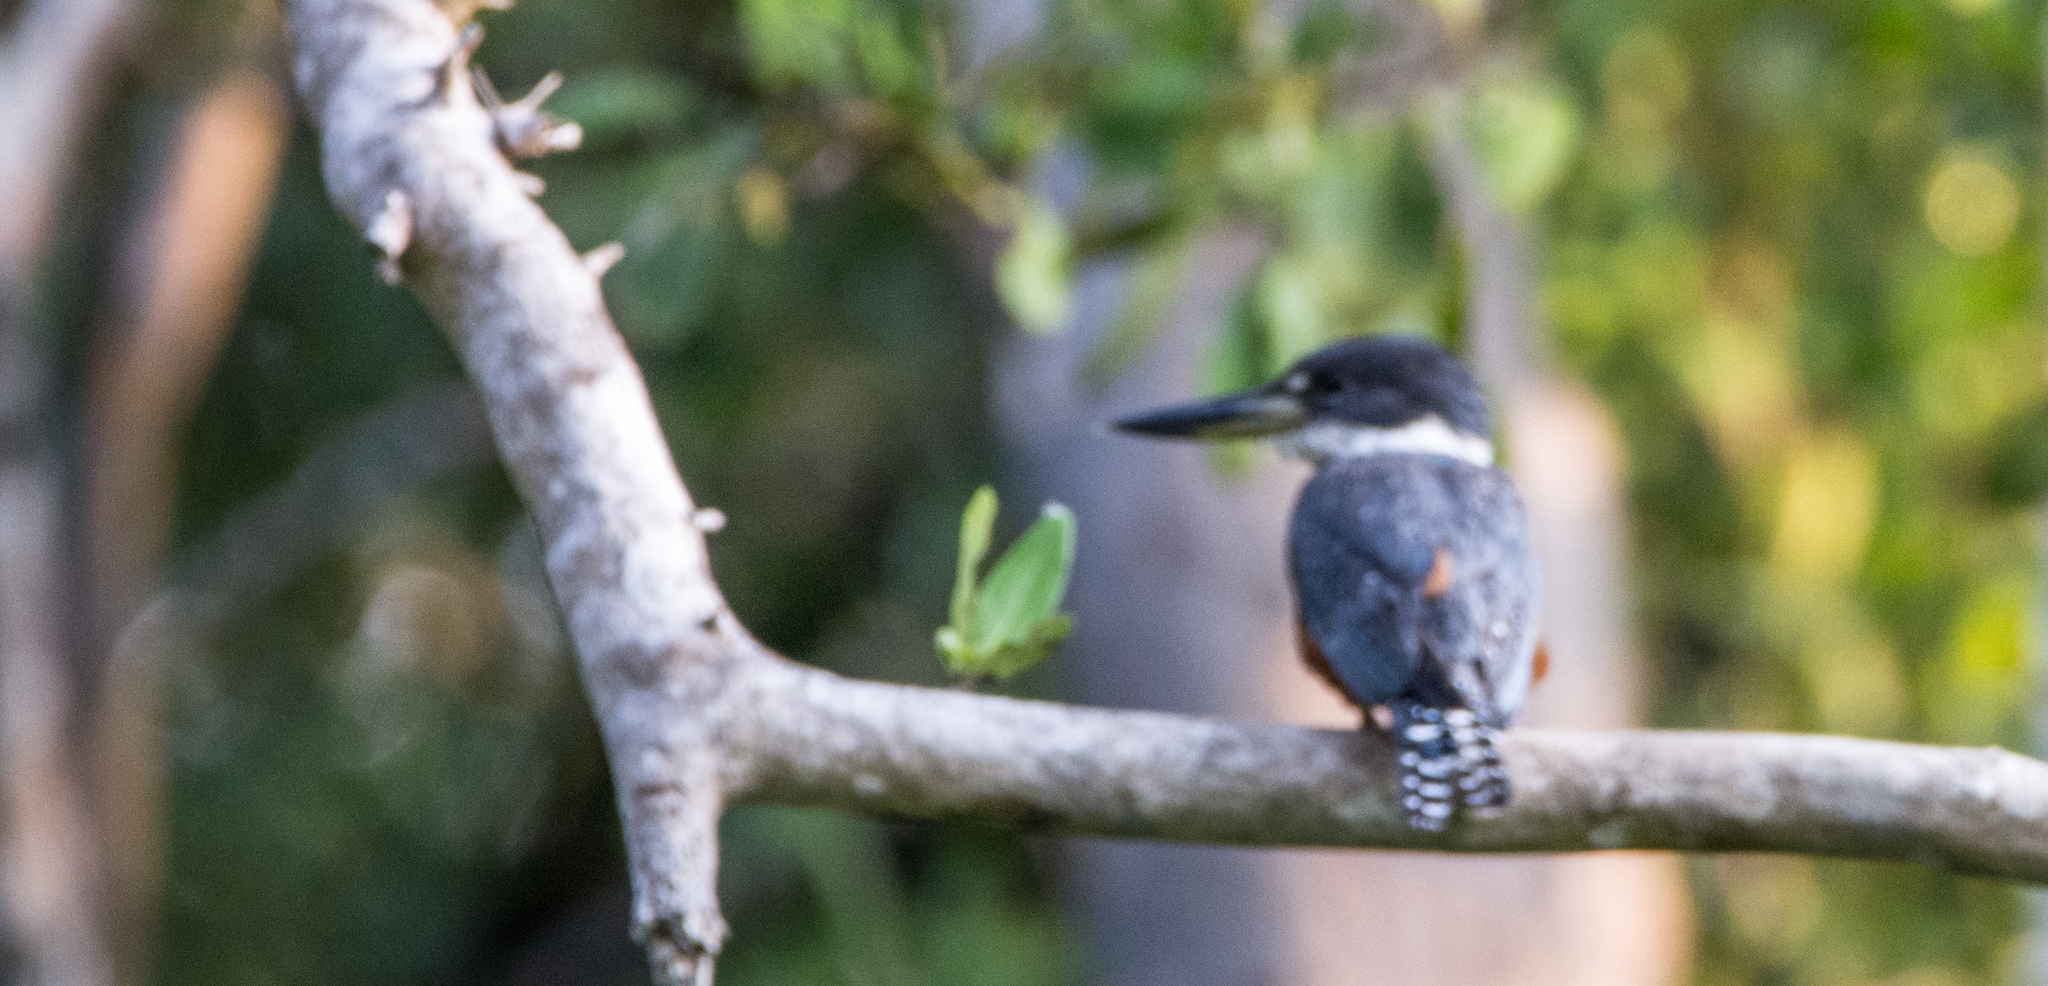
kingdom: Animalia
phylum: Chordata
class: Aves
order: Coraciiformes
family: Alcedinidae
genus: Megaceryle
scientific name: Megaceryle torquata
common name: Ringed kingfisher
